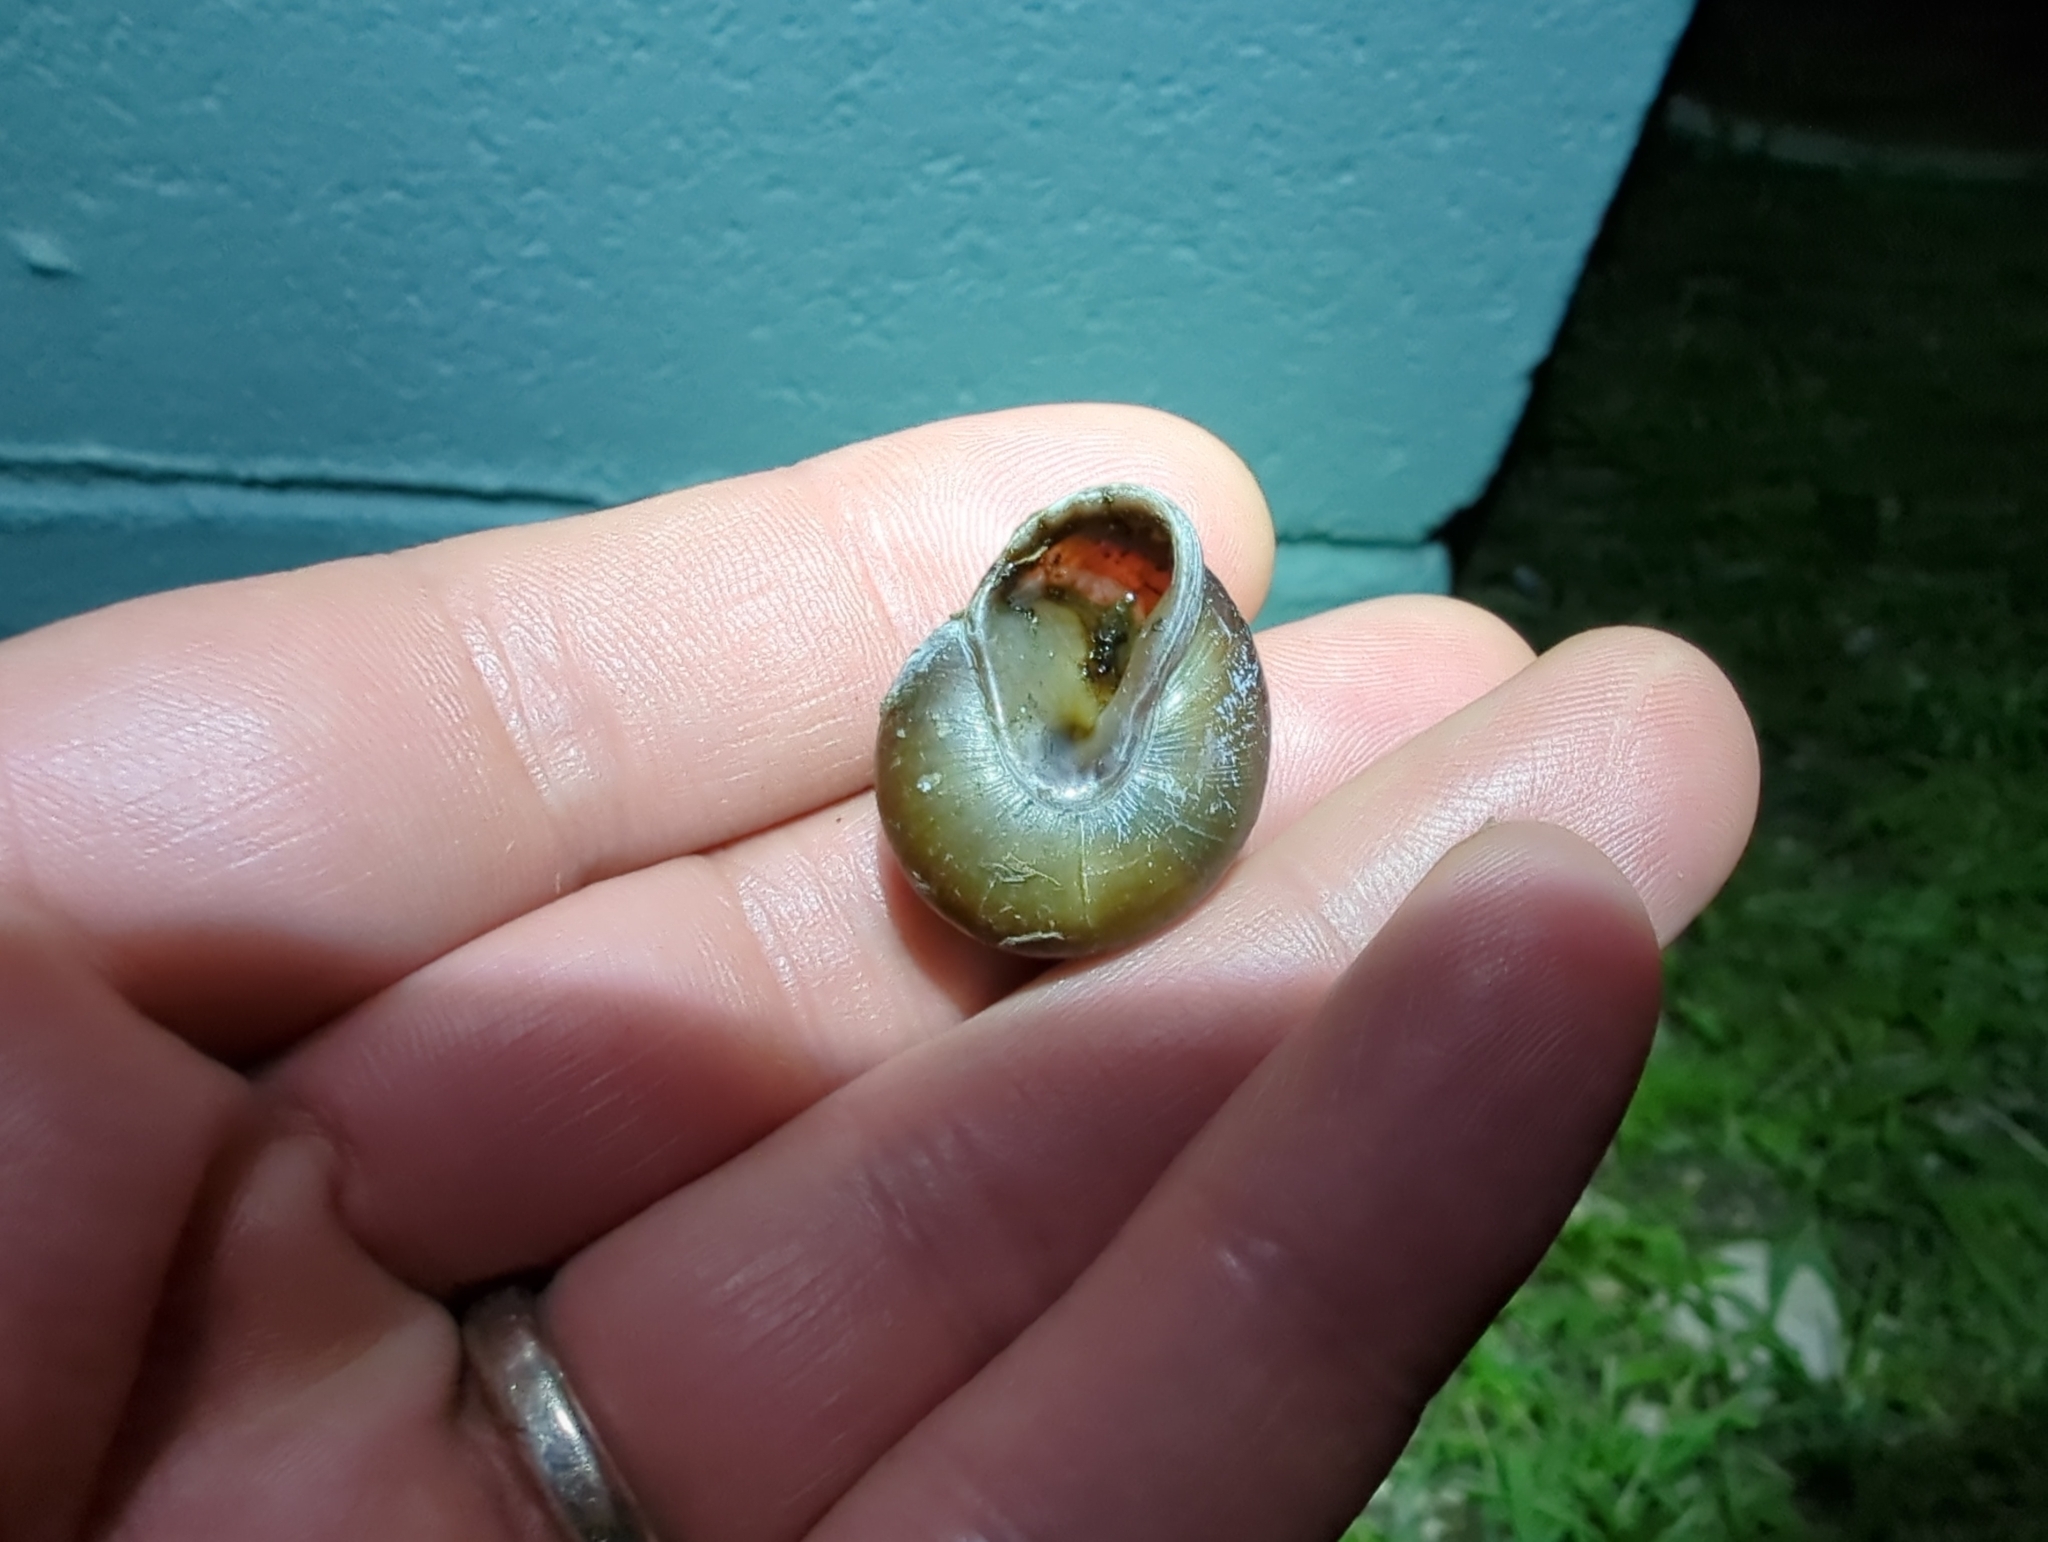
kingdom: Animalia
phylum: Mollusca
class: Gastropoda
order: Stylommatophora
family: Pleurodontidae
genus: Pleurodonte
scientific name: Pleurodonte isabella
